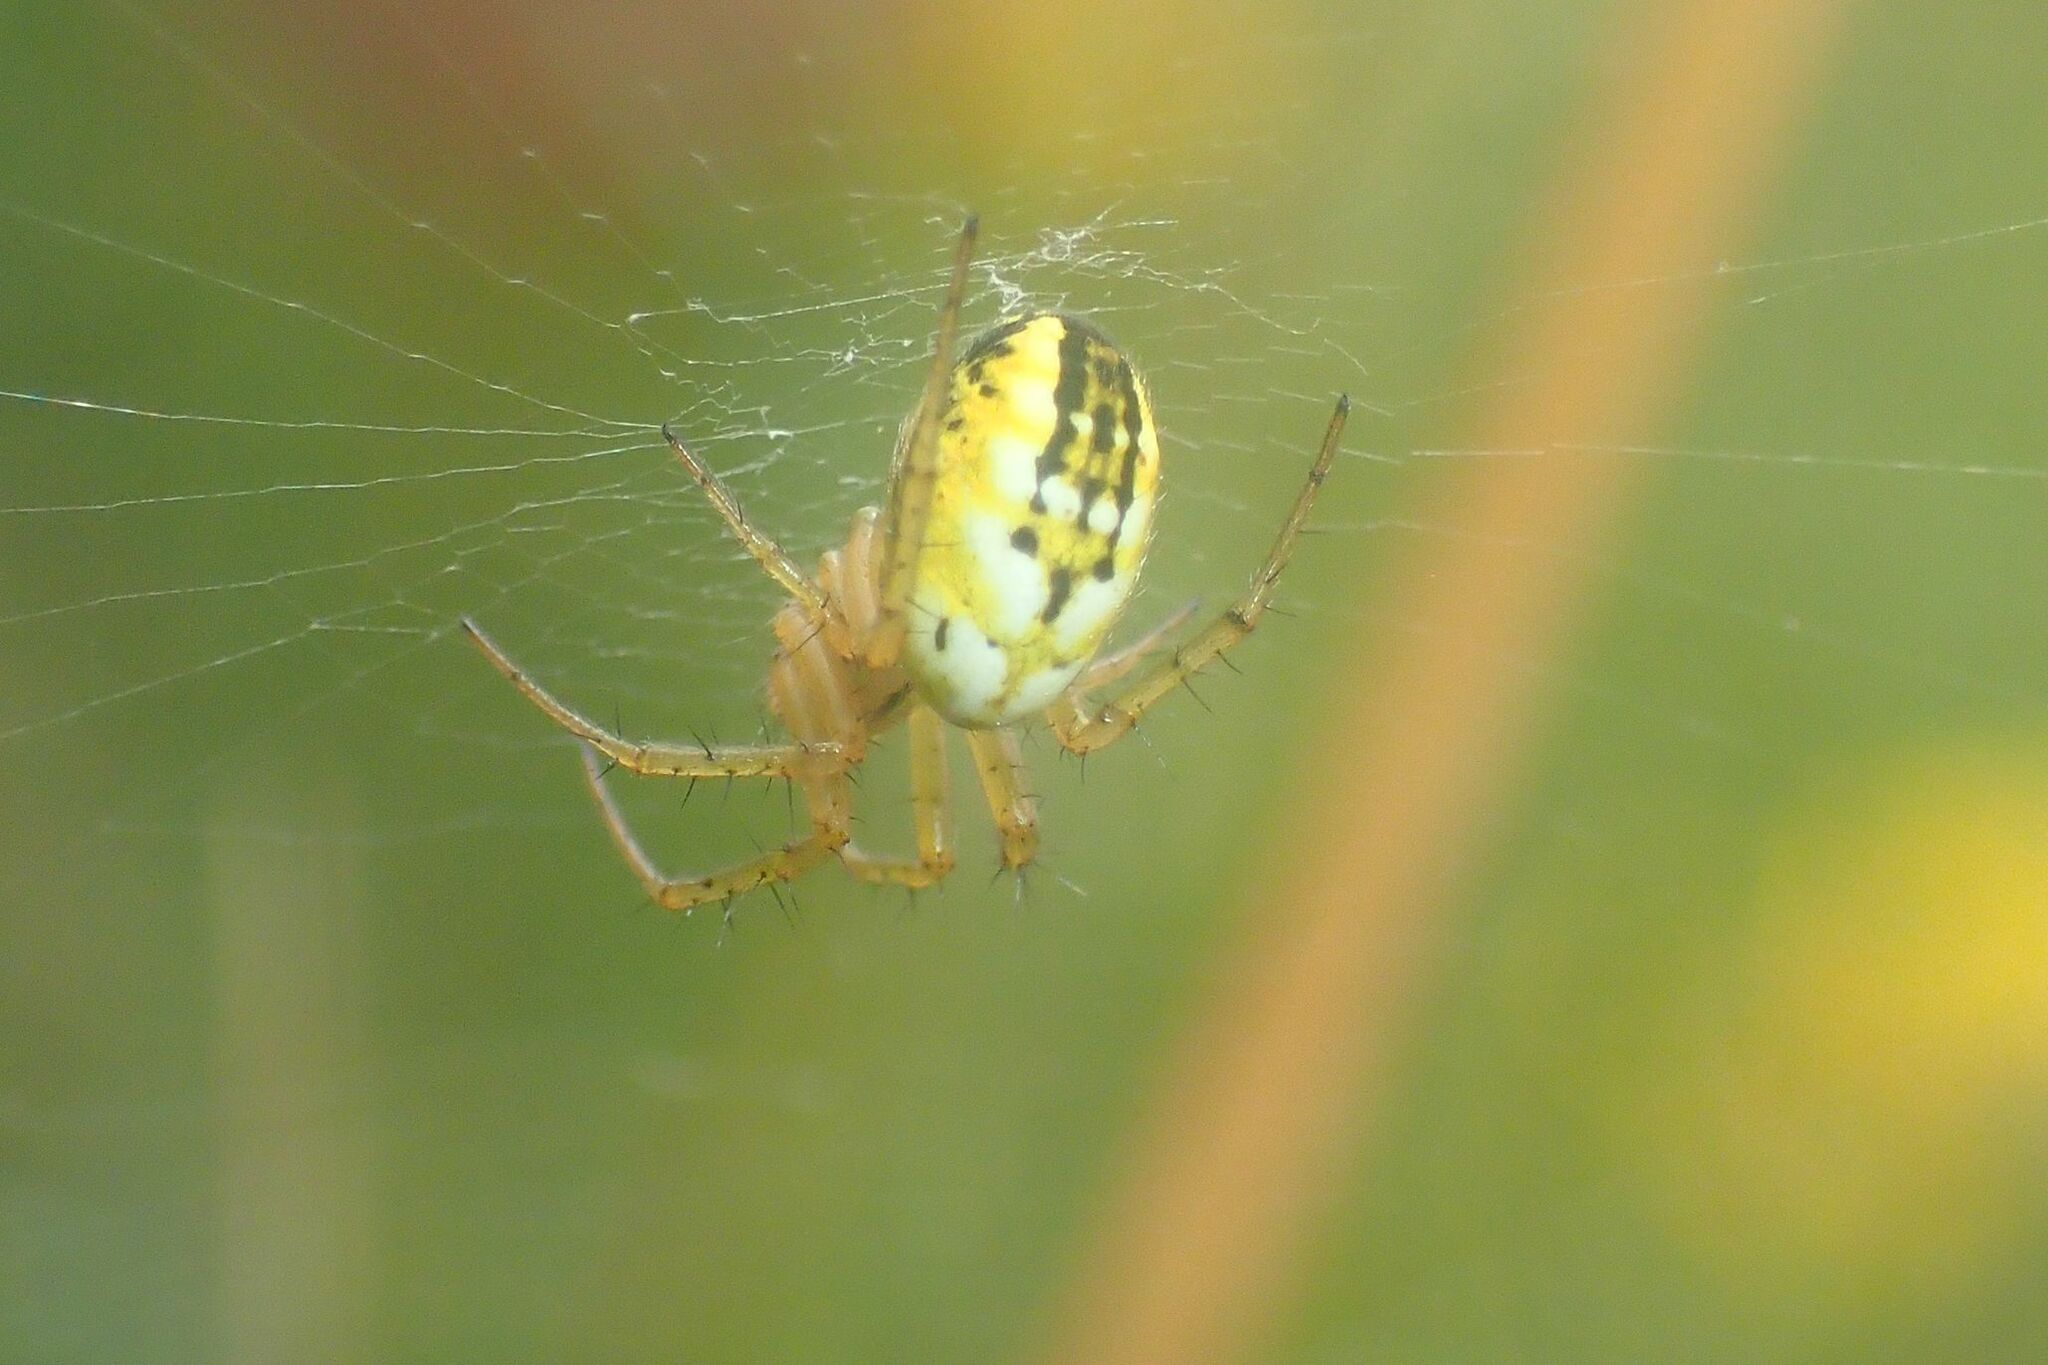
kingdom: Animalia
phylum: Arthropoda
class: Arachnida
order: Araneae
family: Araneidae
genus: Mangora
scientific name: Mangora acalypha
